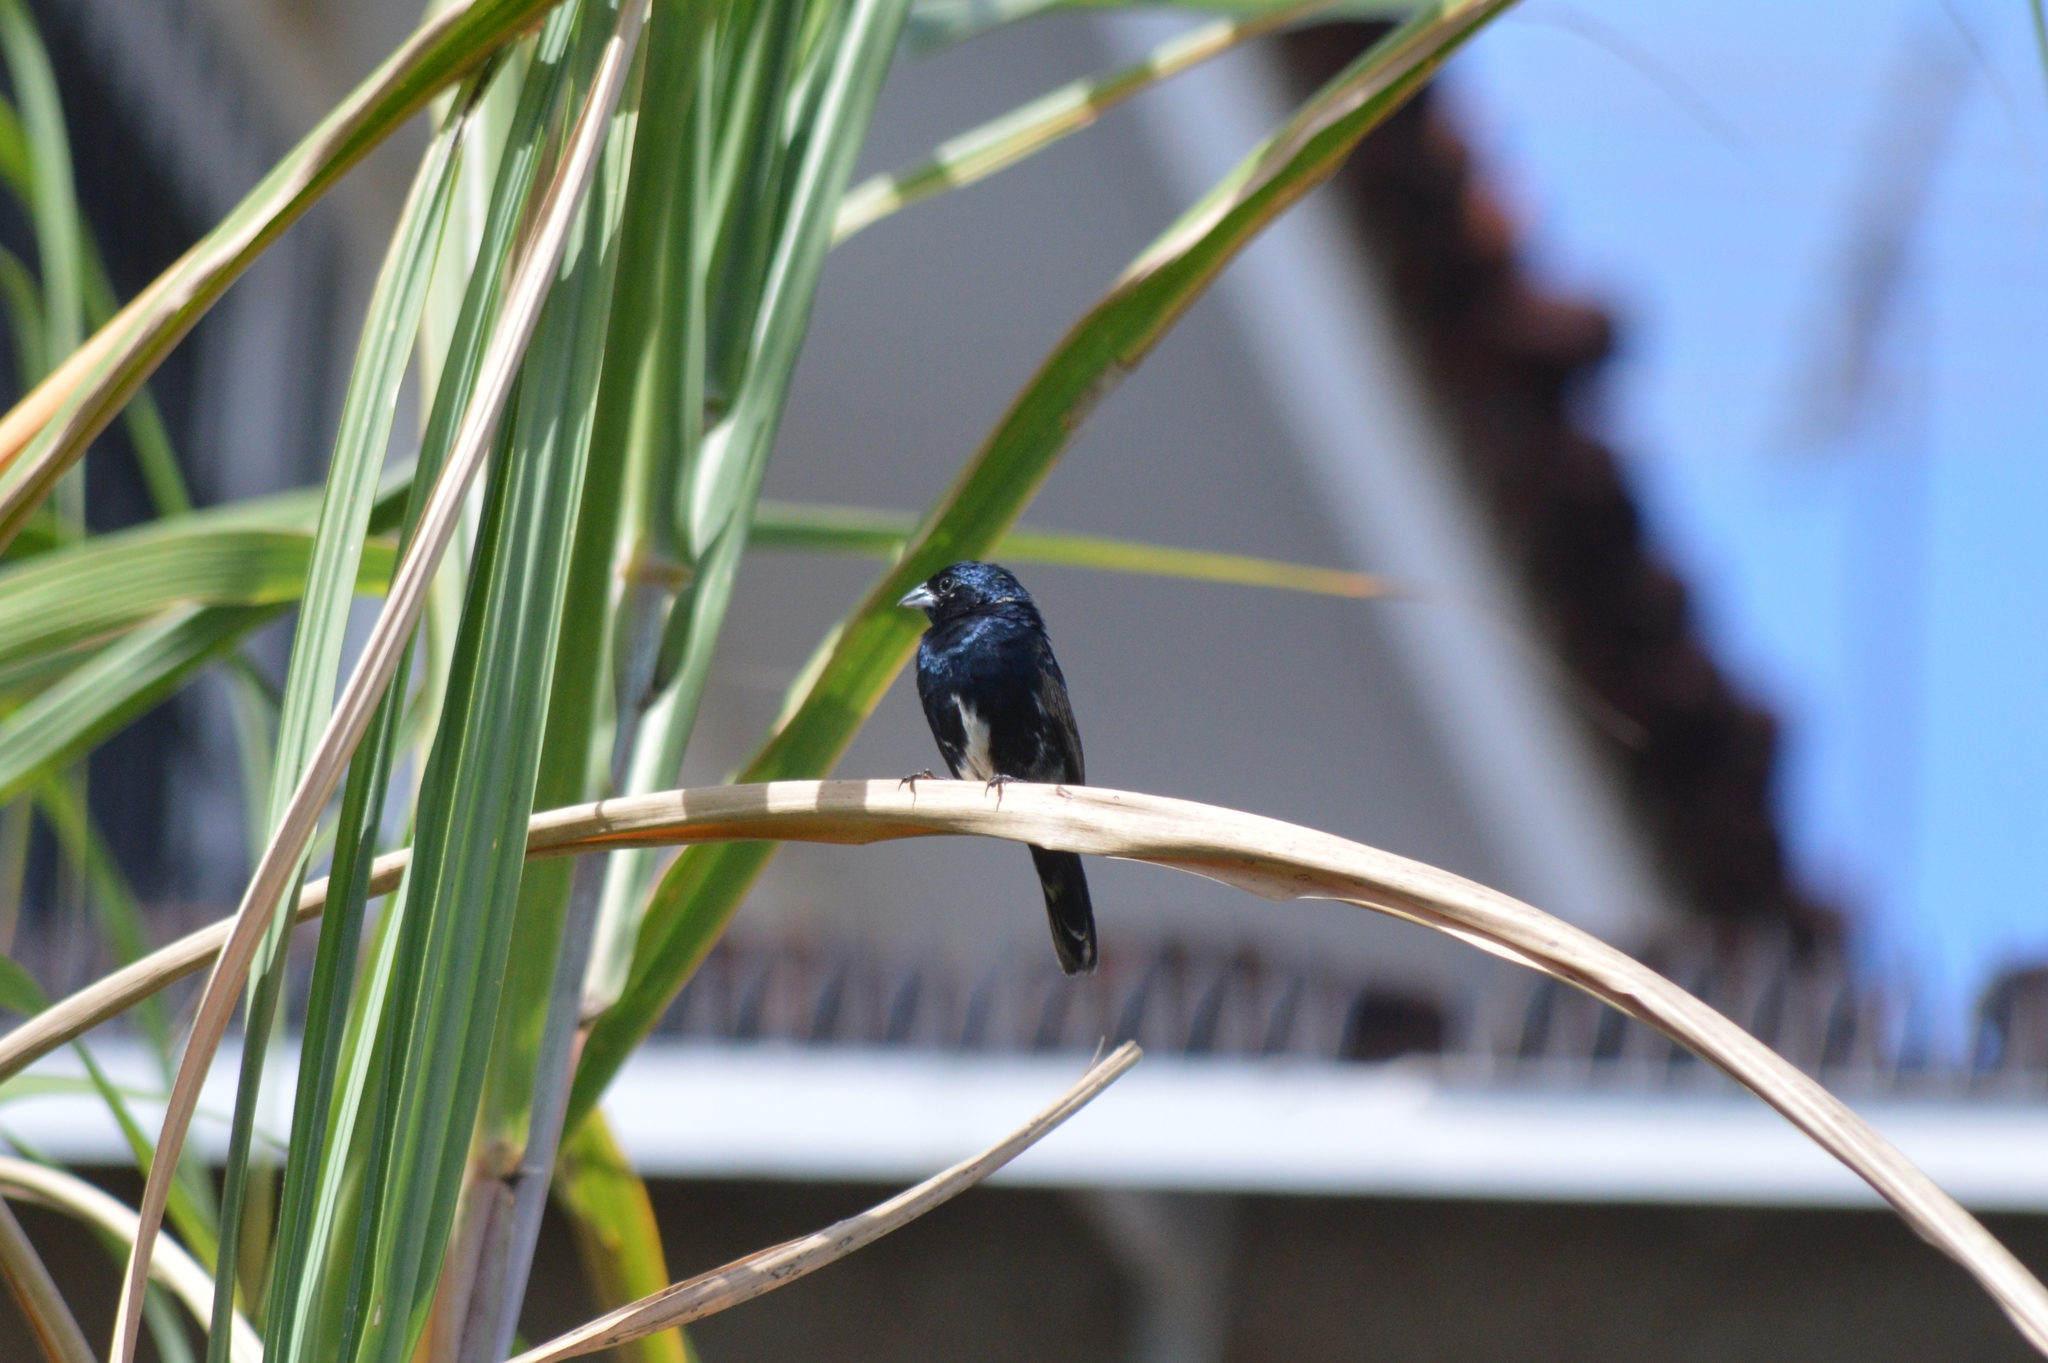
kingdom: Animalia
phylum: Chordata
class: Aves
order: Passeriformes
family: Thraupidae
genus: Volatinia
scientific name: Volatinia jacarina
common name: Blue-black grassquit
